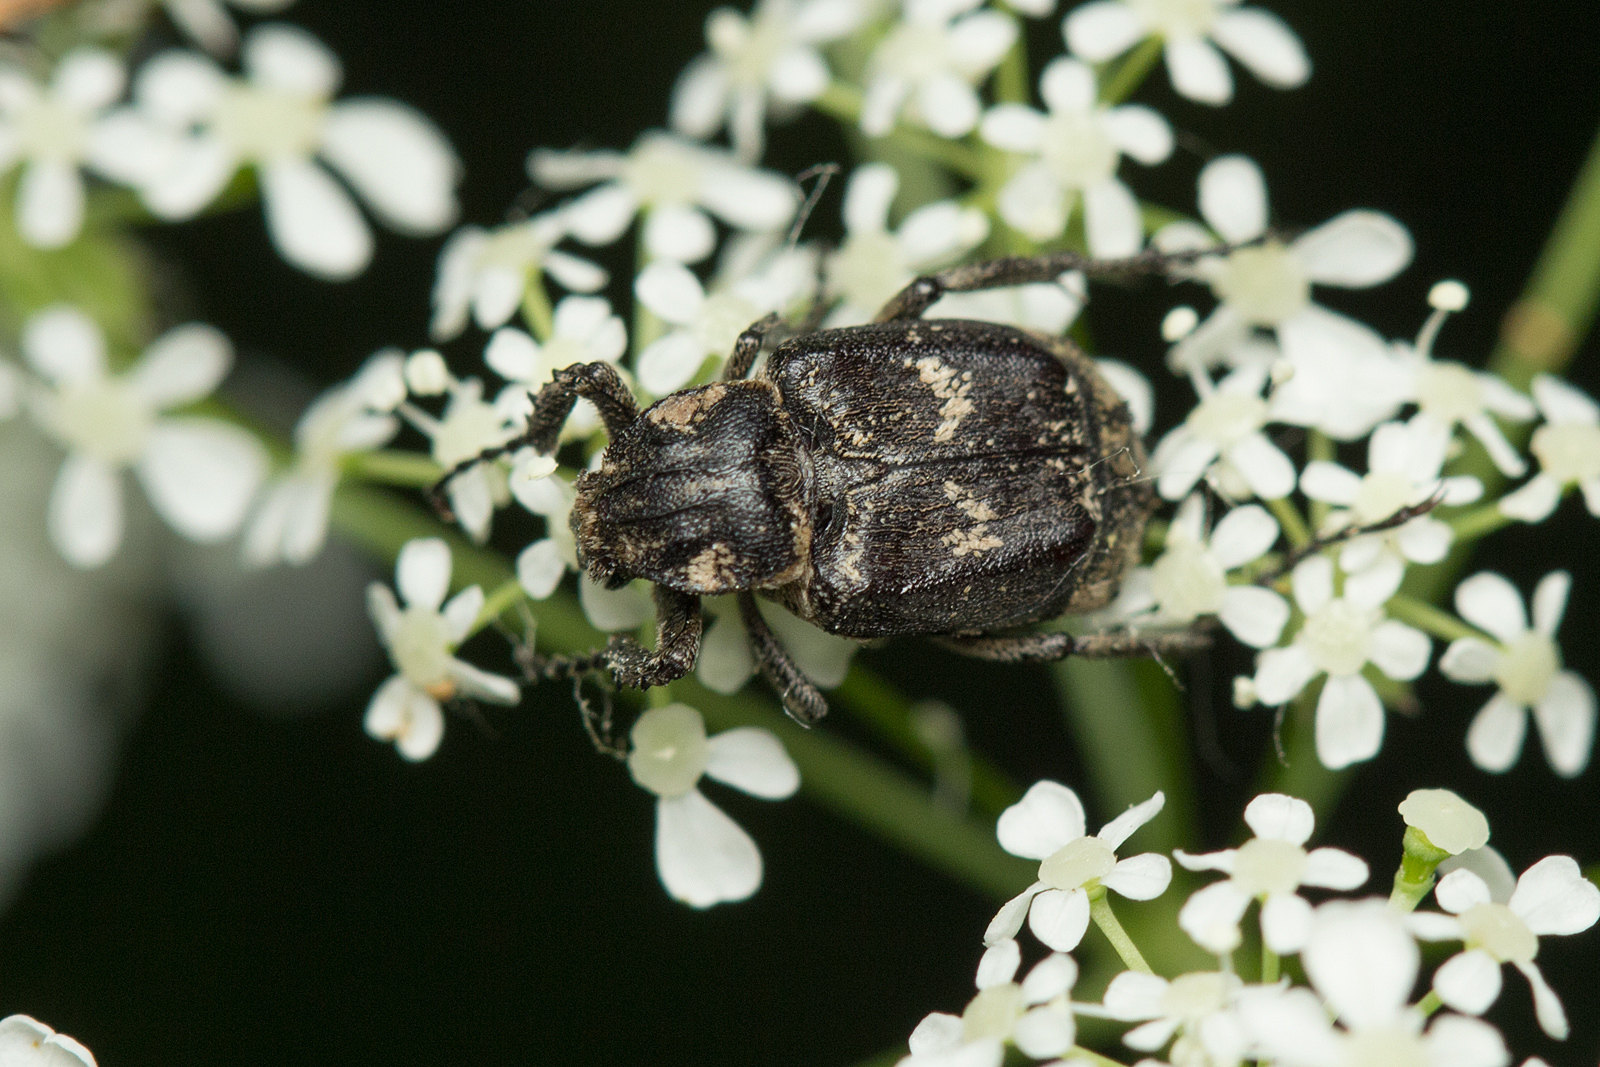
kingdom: Animalia
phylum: Arthropoda
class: Insecta
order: Coleoptera
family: Scarabaeidae
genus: Valgus
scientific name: Valgus hemipterus
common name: Bug flower chafer
